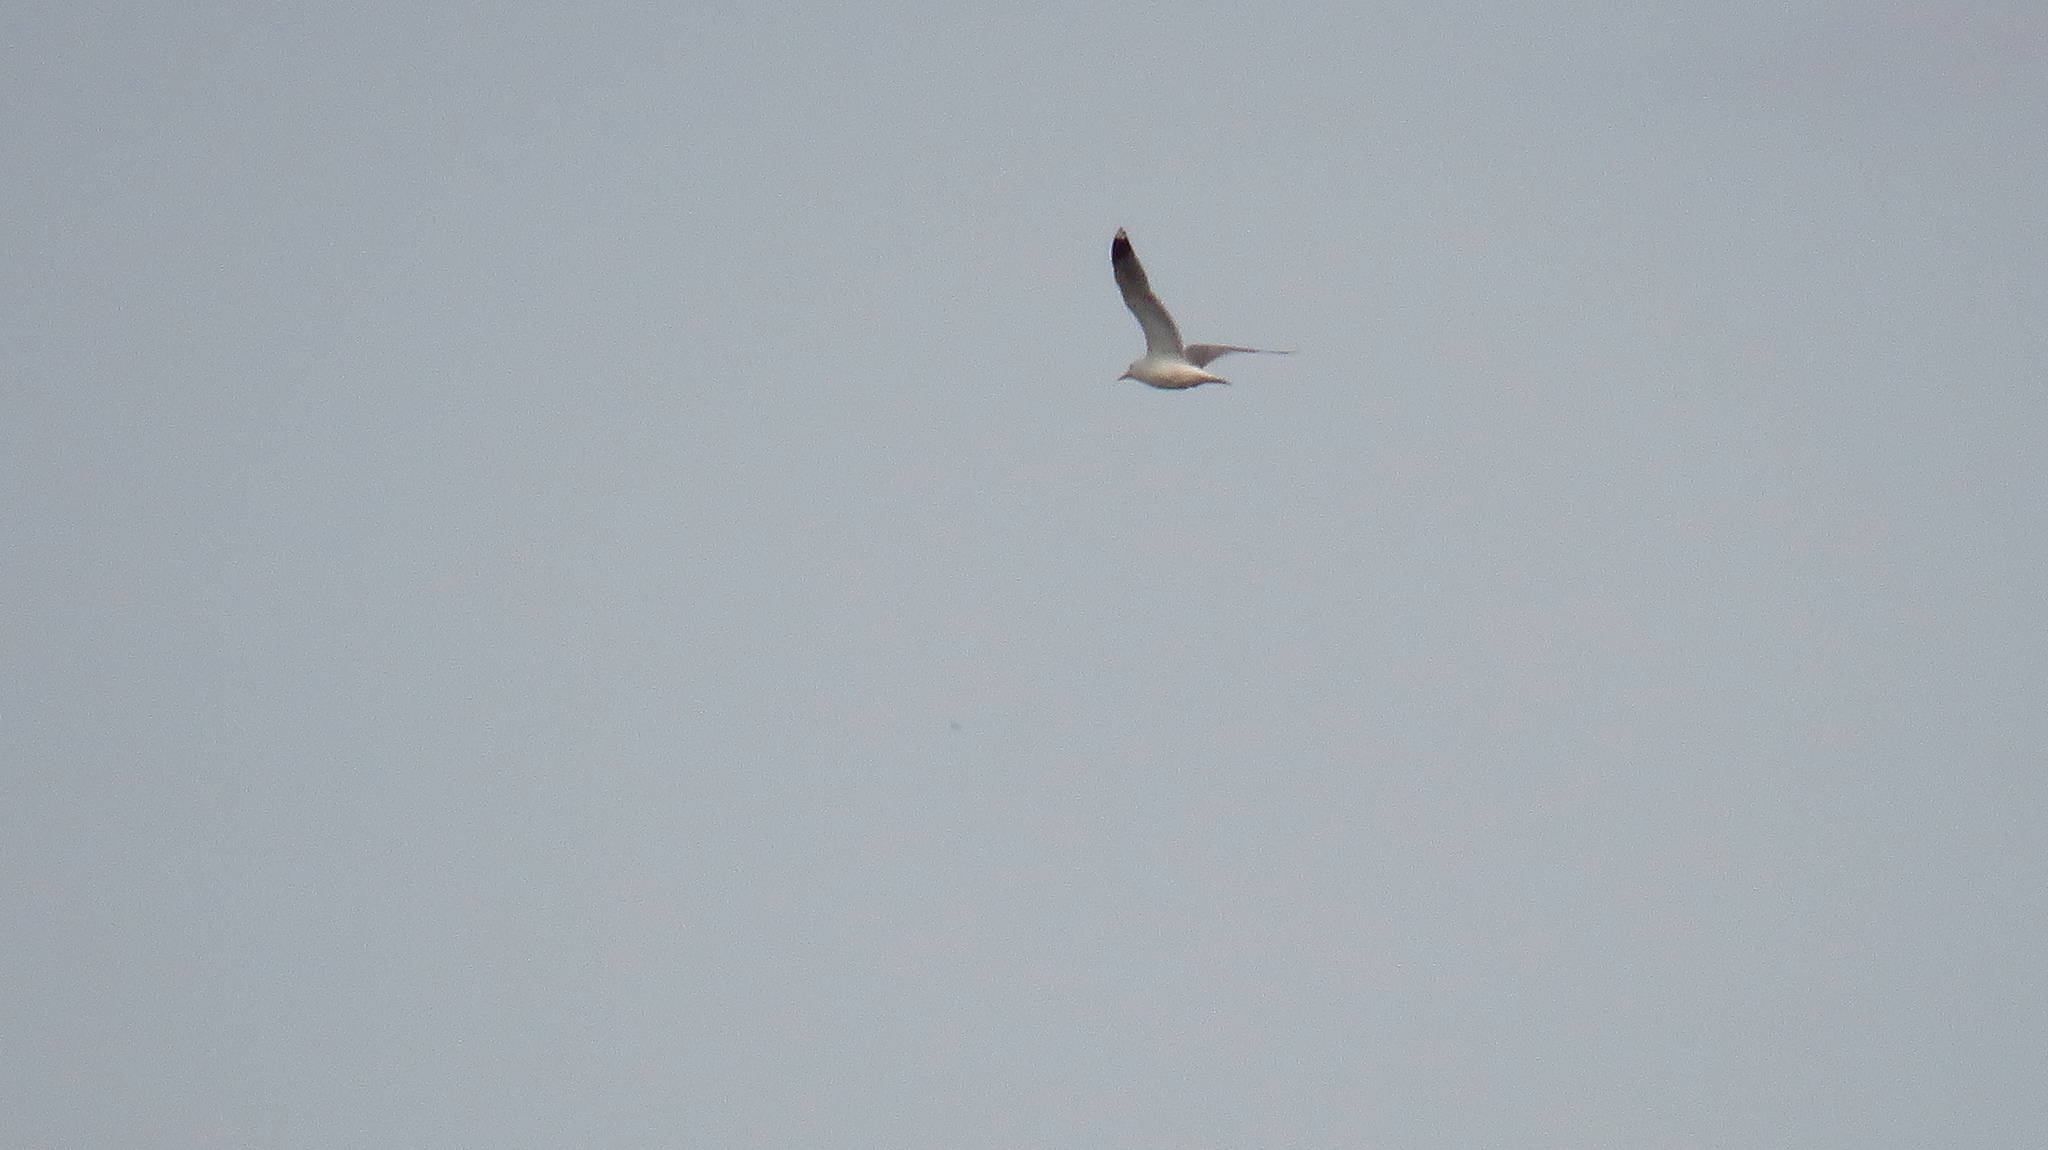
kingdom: Animalia
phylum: Chordata
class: Aves
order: Charadriiformes
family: Laridae
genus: Larus
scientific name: Larus canus
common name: Mew gull
